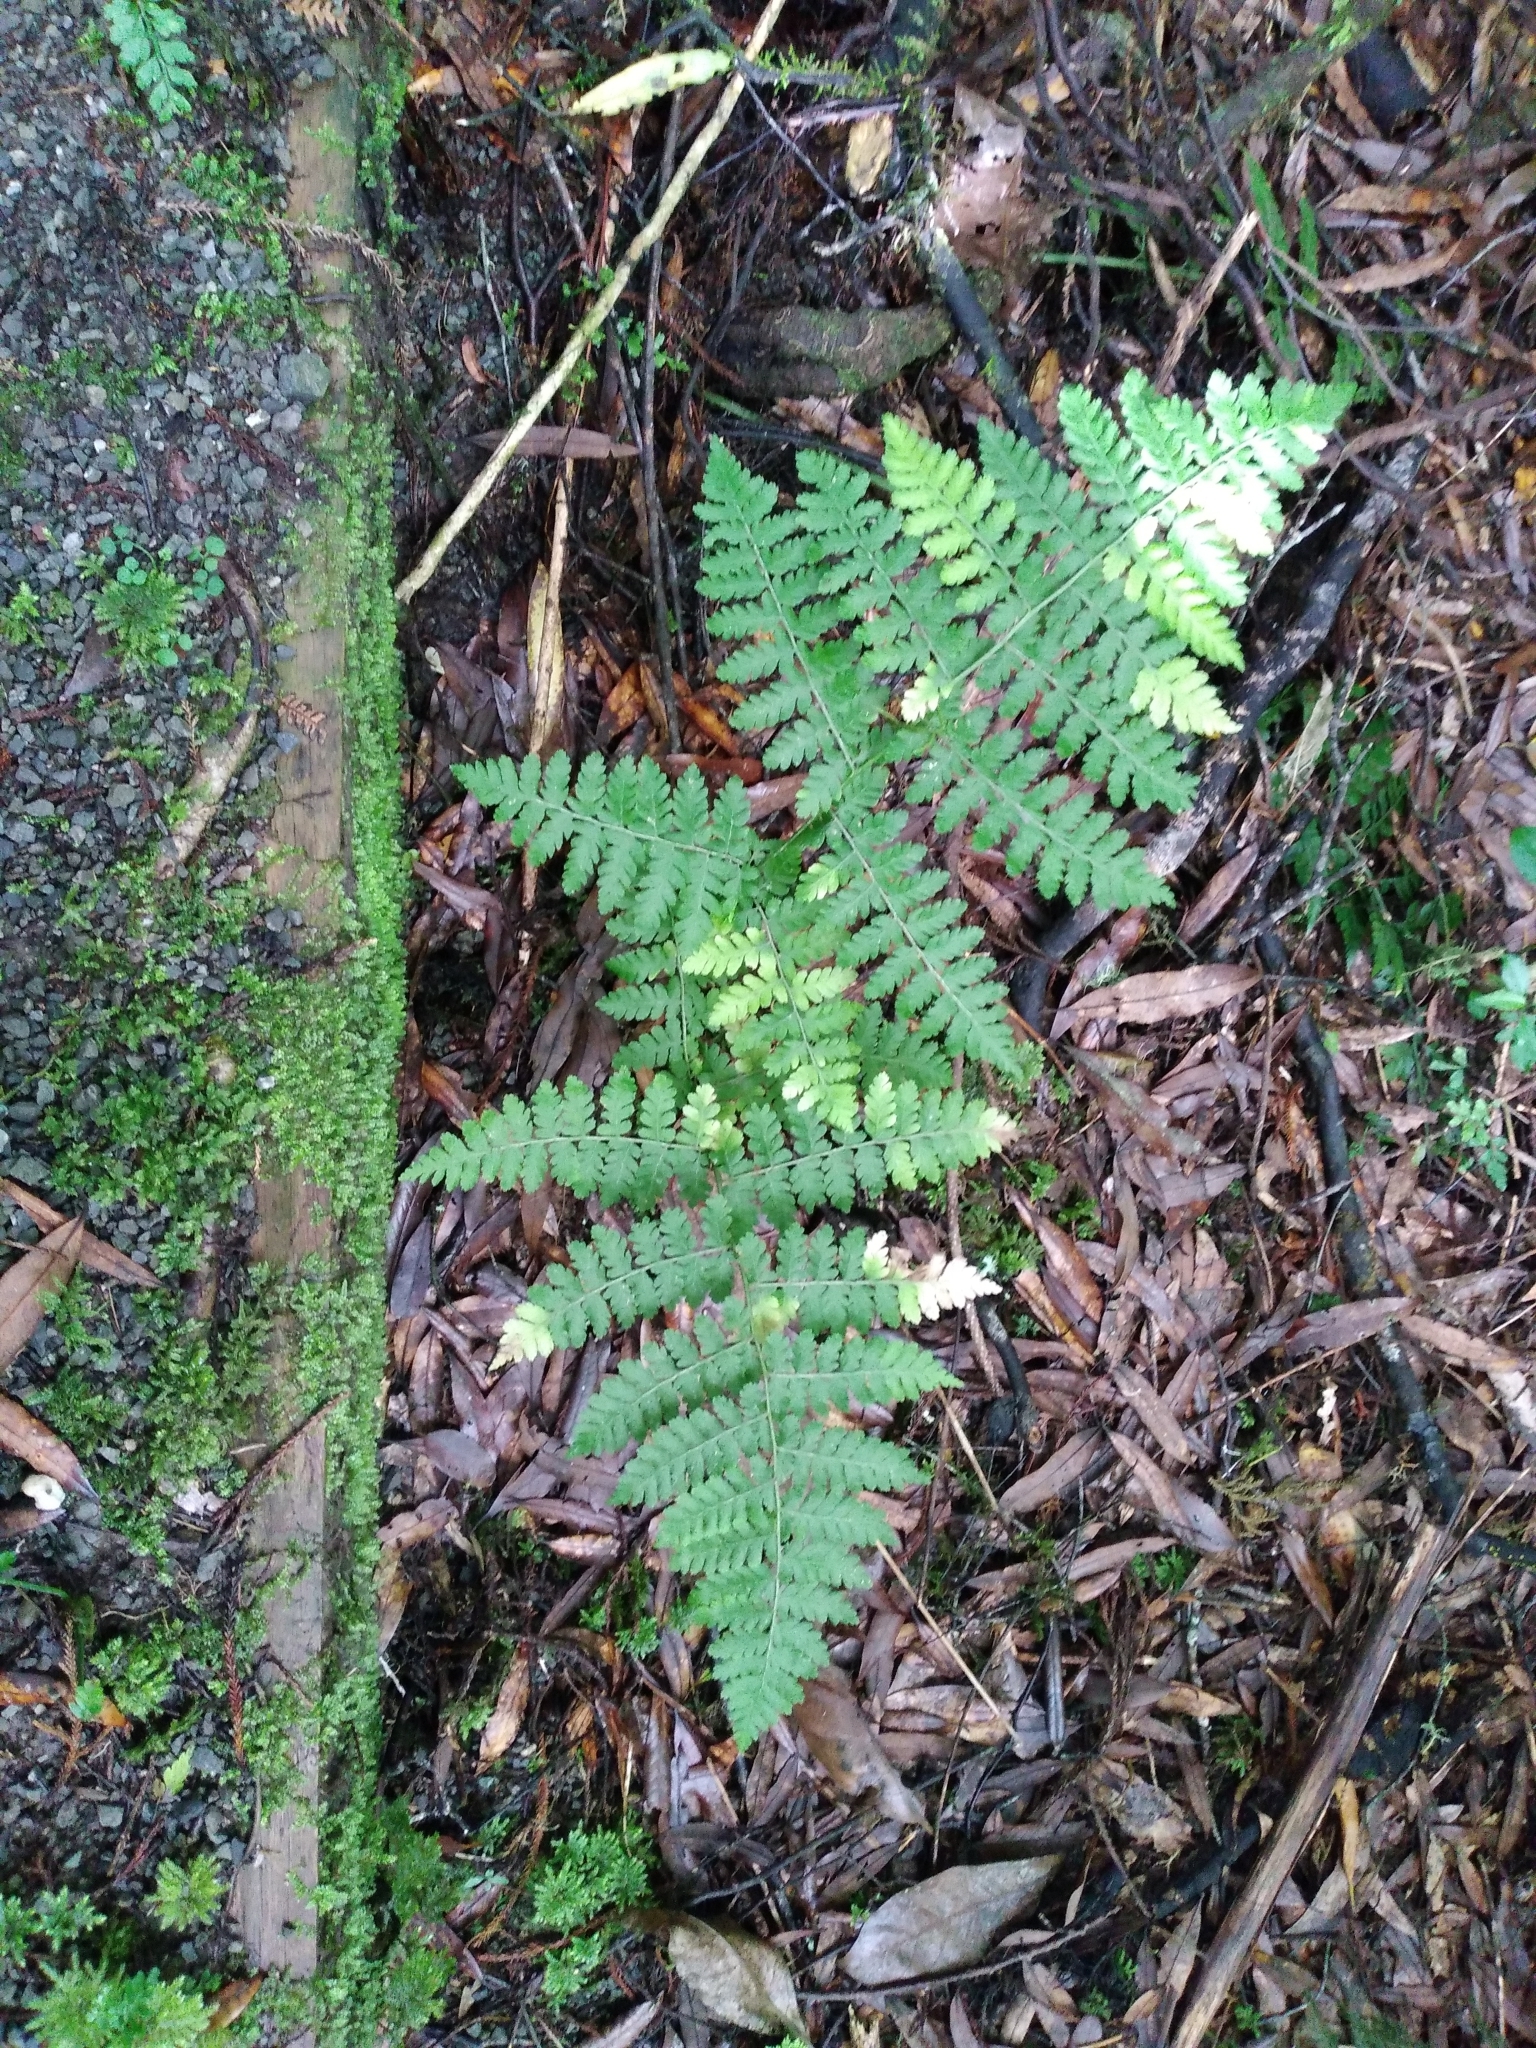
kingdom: Plantae
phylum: Tracheophyta
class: Polypodiopsida
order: Polypodiales
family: Athyriaceae
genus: Diplazium
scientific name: Diplazium australe
